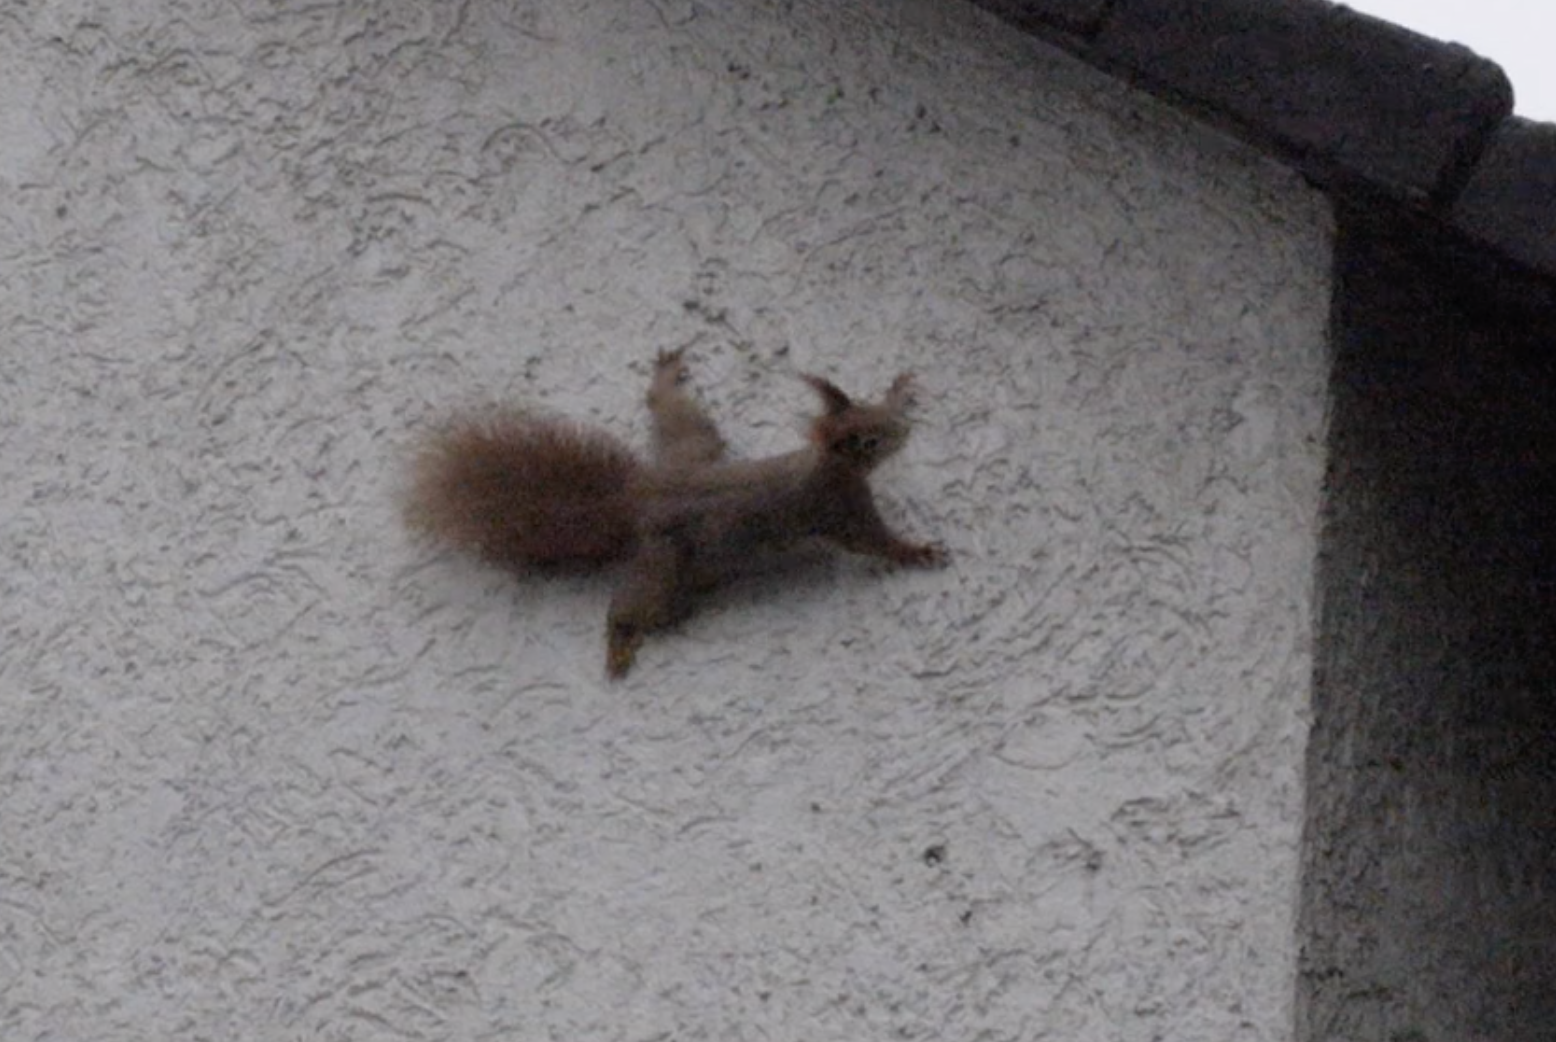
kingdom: Animalia
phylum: Chordata
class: Mammalia
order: Rodentia
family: Sciuridae
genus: Sciurus
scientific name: Sciurus vulgaris
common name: Eurasian red squirrel
